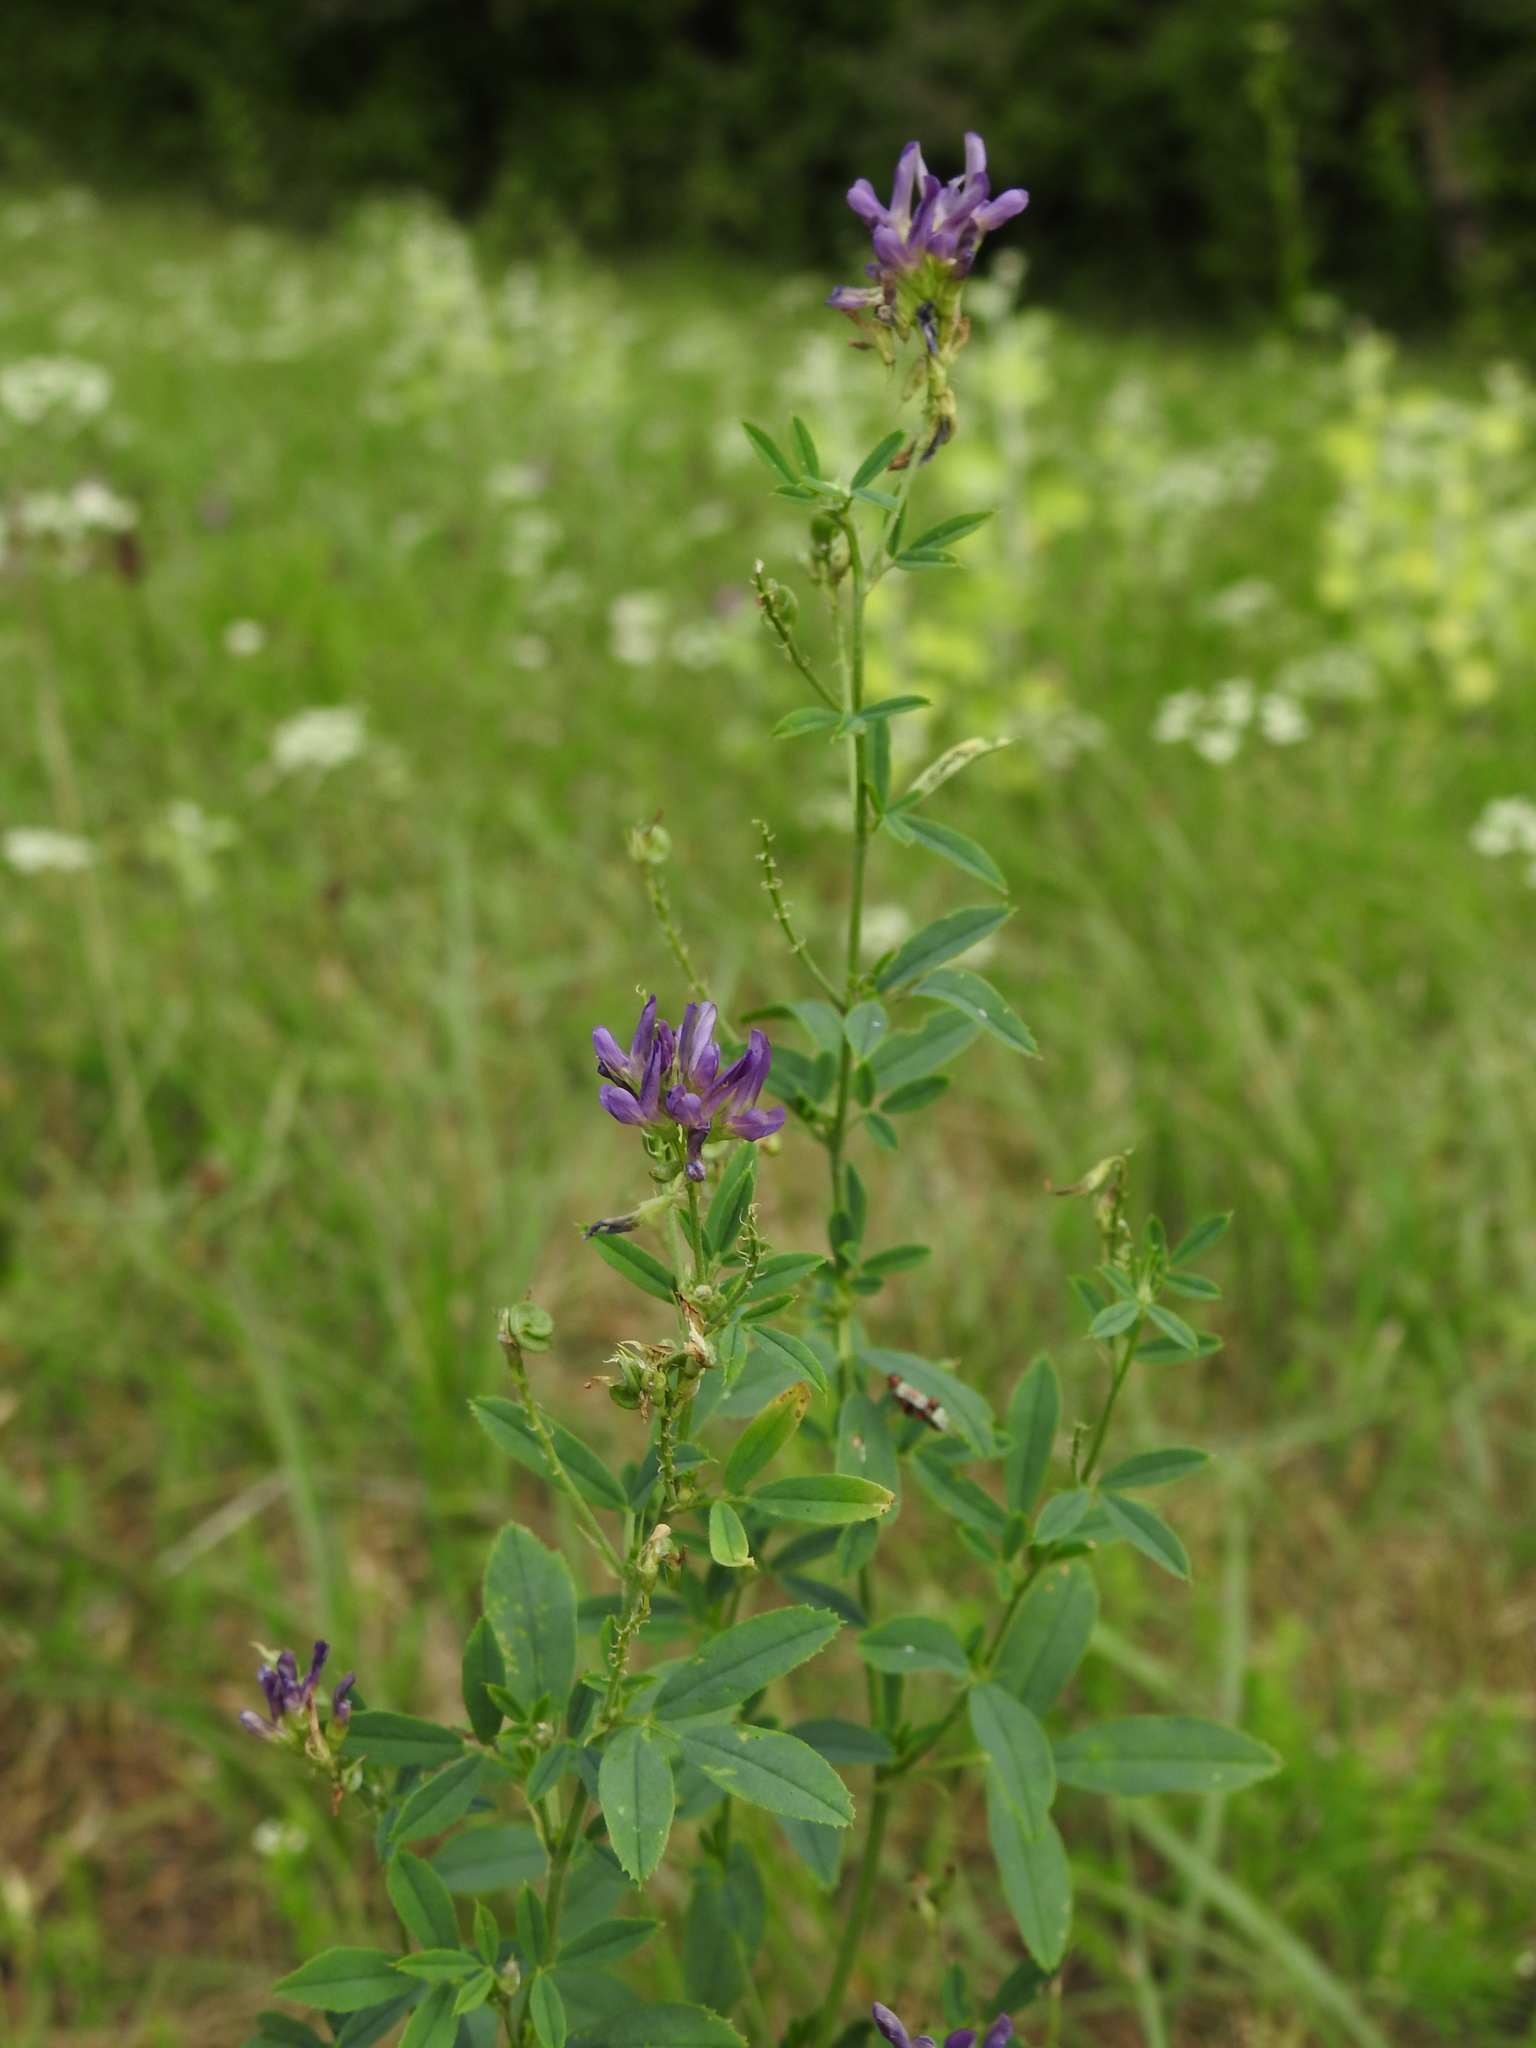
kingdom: Plantae
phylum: Tracheophyta
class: Magnoliopsida
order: Fabales
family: Fabaceae
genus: Medicago
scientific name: Medicago sativa
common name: Alfalfa
